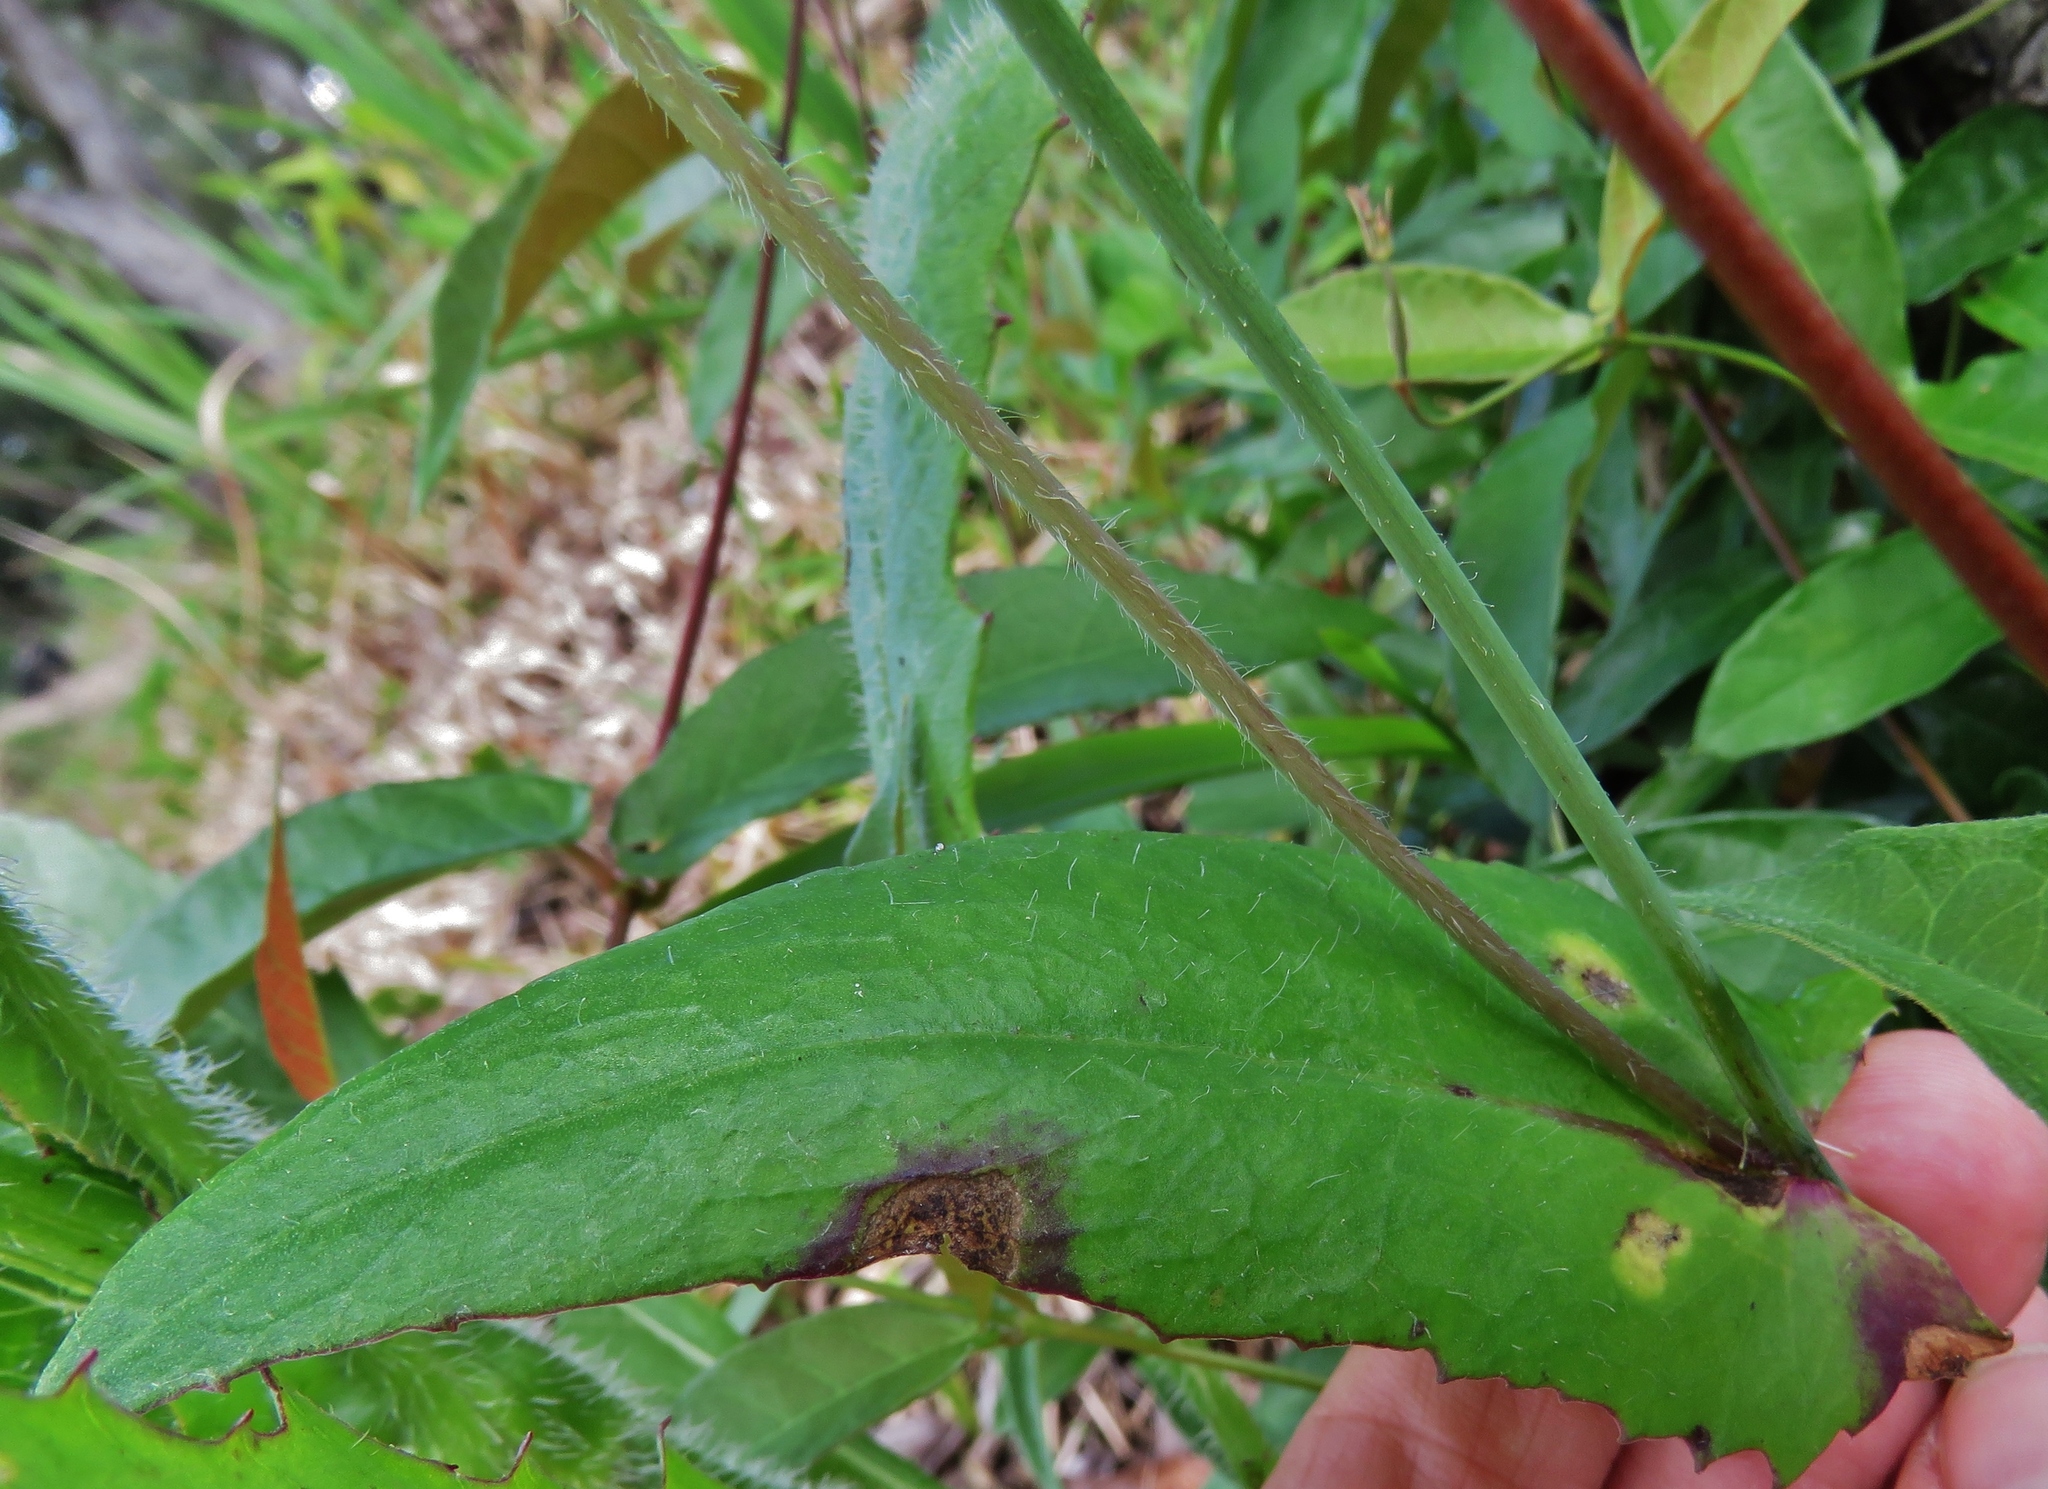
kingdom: Plantae
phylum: Tracheophyta
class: Magnoliopsida
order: Asterales
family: Asteraceae
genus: Emilia
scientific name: Emilia fosbergii
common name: Florida tasselflower
